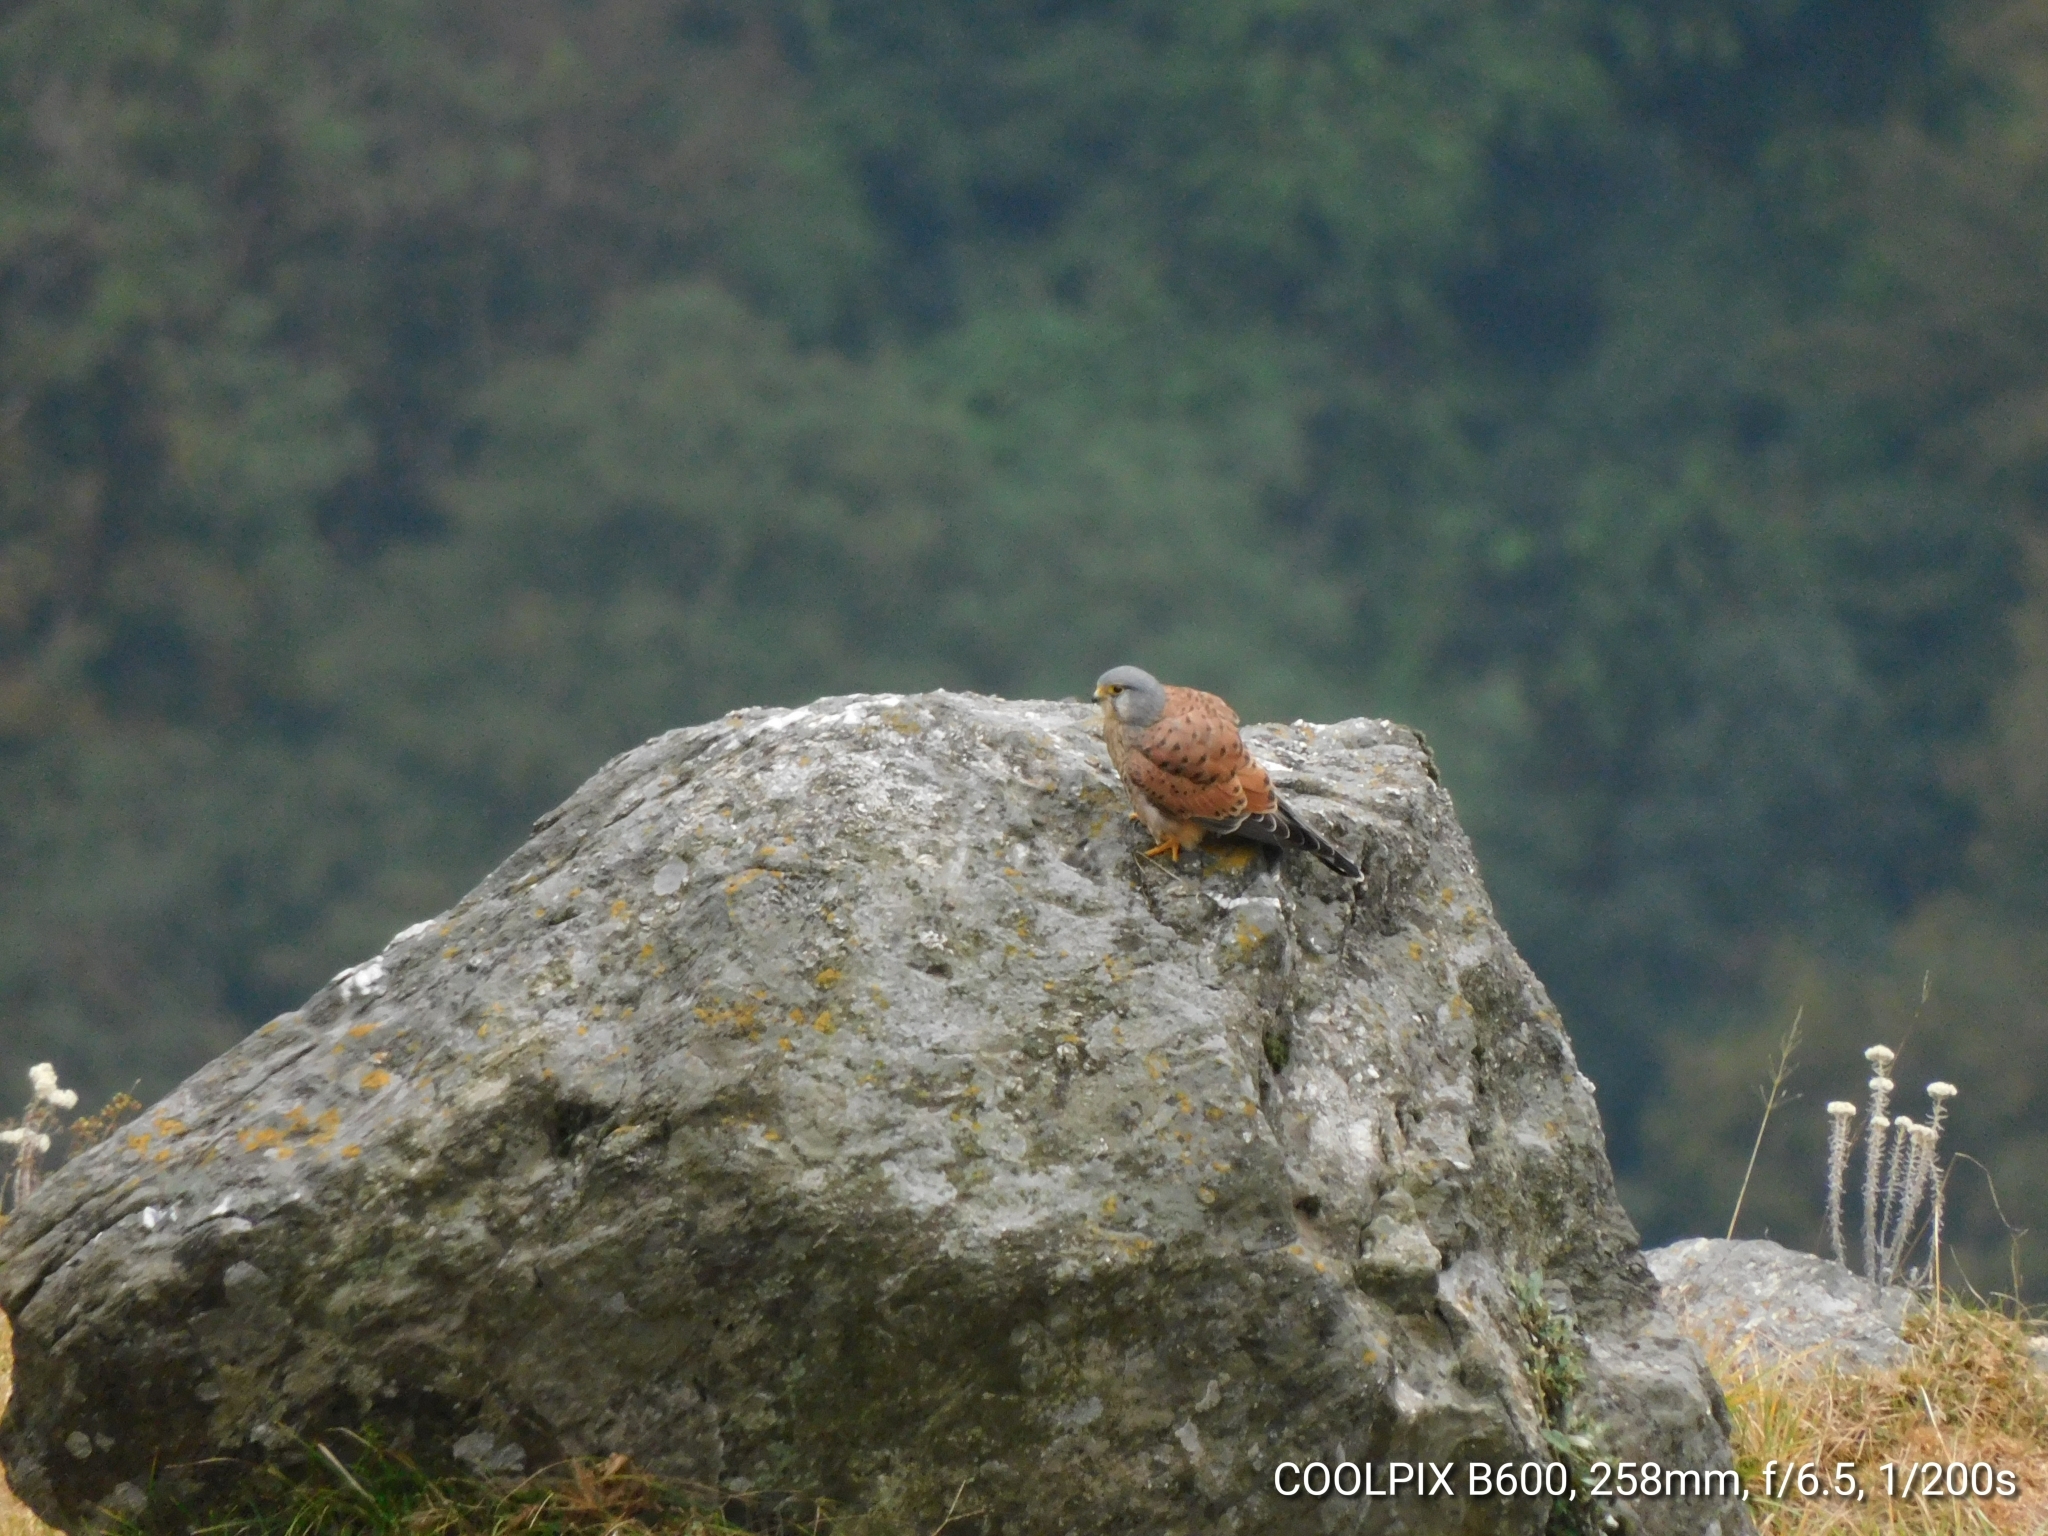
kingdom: Animalia
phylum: Chordata
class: Aves
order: Falconiformes
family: Falconidae
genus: Falco
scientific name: Falco tinnunculus
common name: Common kestrel
